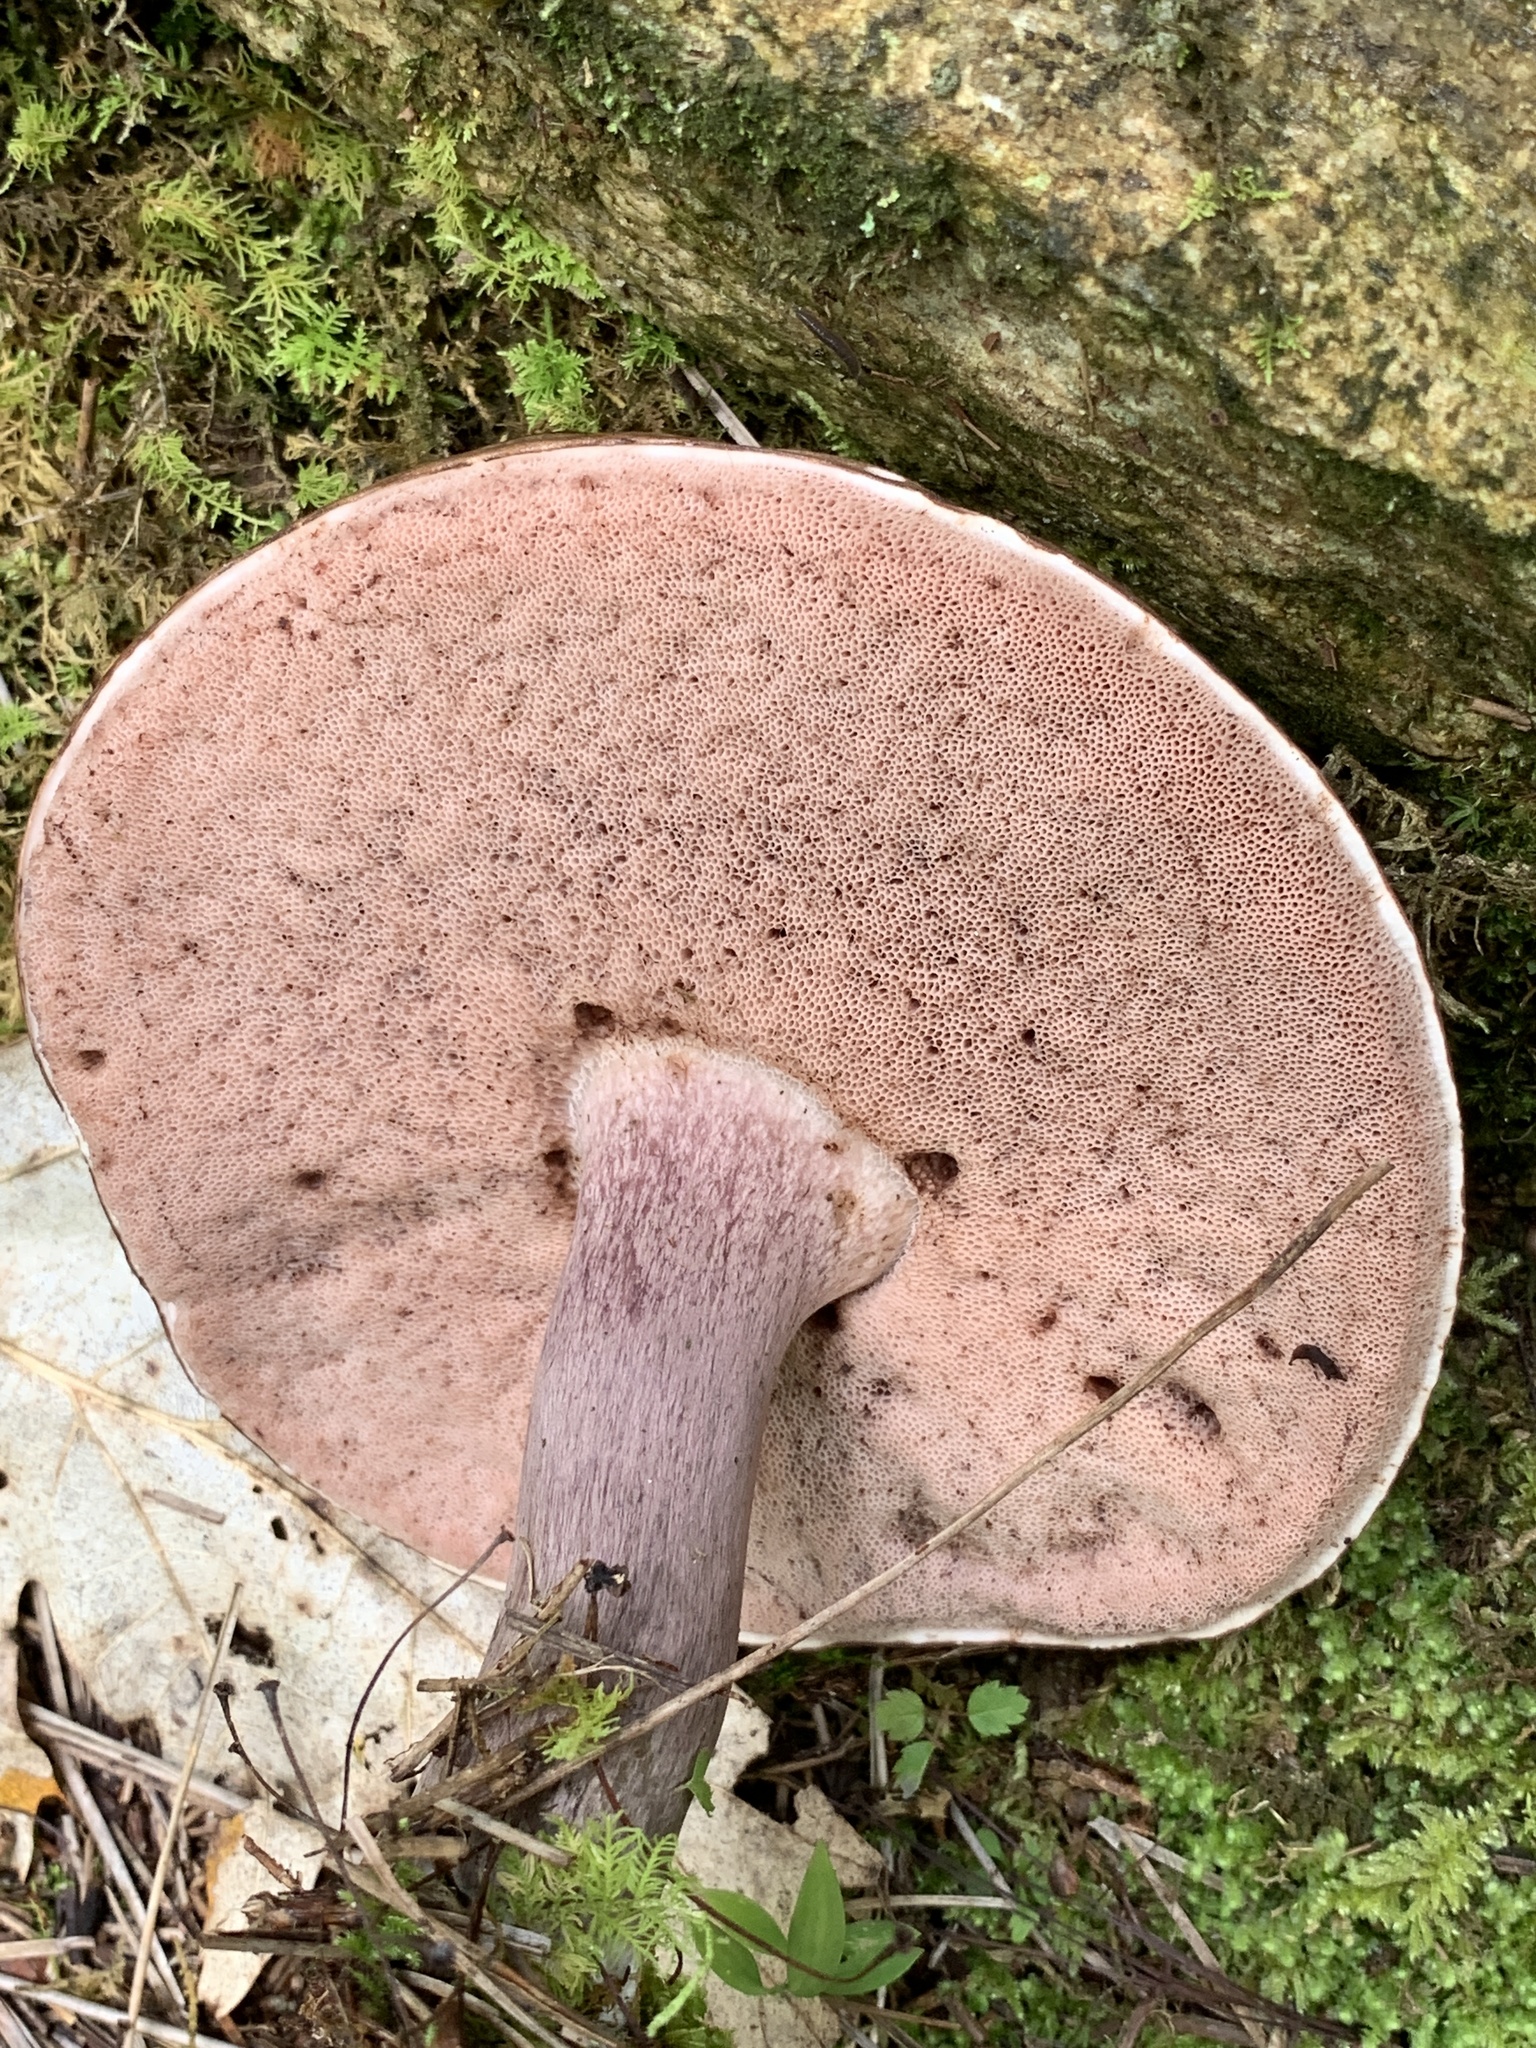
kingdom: Fungi
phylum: Basidiomycota
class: Agaricomycetes
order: Boletales
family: Boletaceae
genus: Sutorius
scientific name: Sutorius eximius
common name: Lilac-brown bolete
